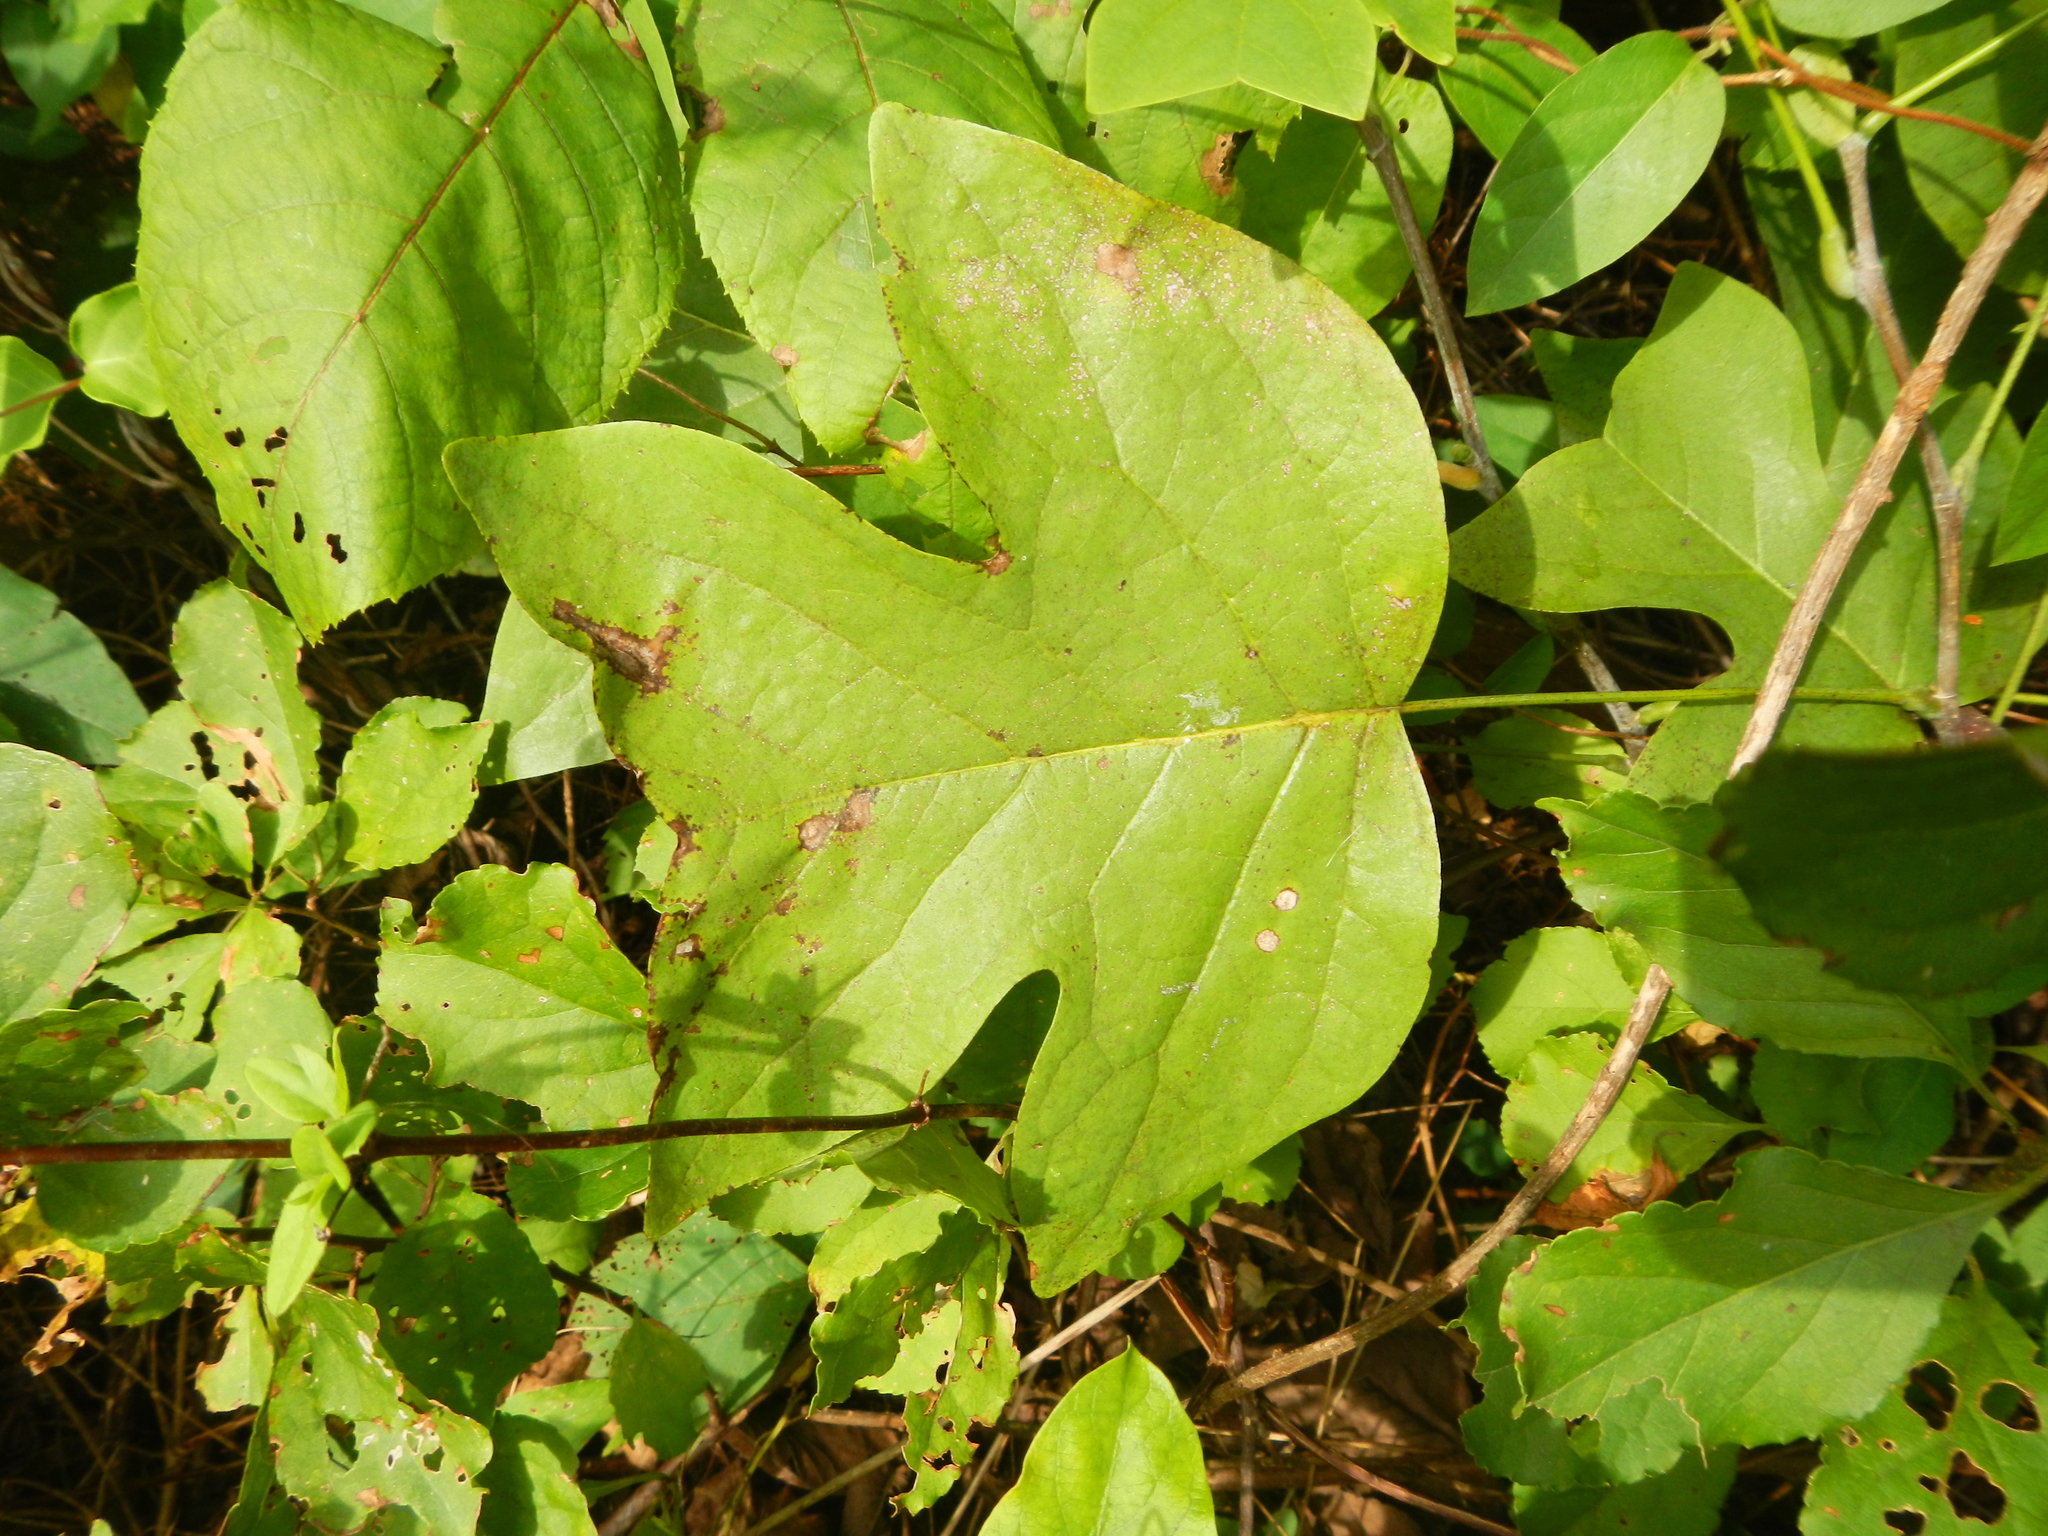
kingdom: Plantae
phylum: Tracheophyta
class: Magnoliopsida
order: Magnoliales
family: Magnoliaceae
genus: Liriodendron
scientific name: Liriodendron tulipifera
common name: Tulip tree
